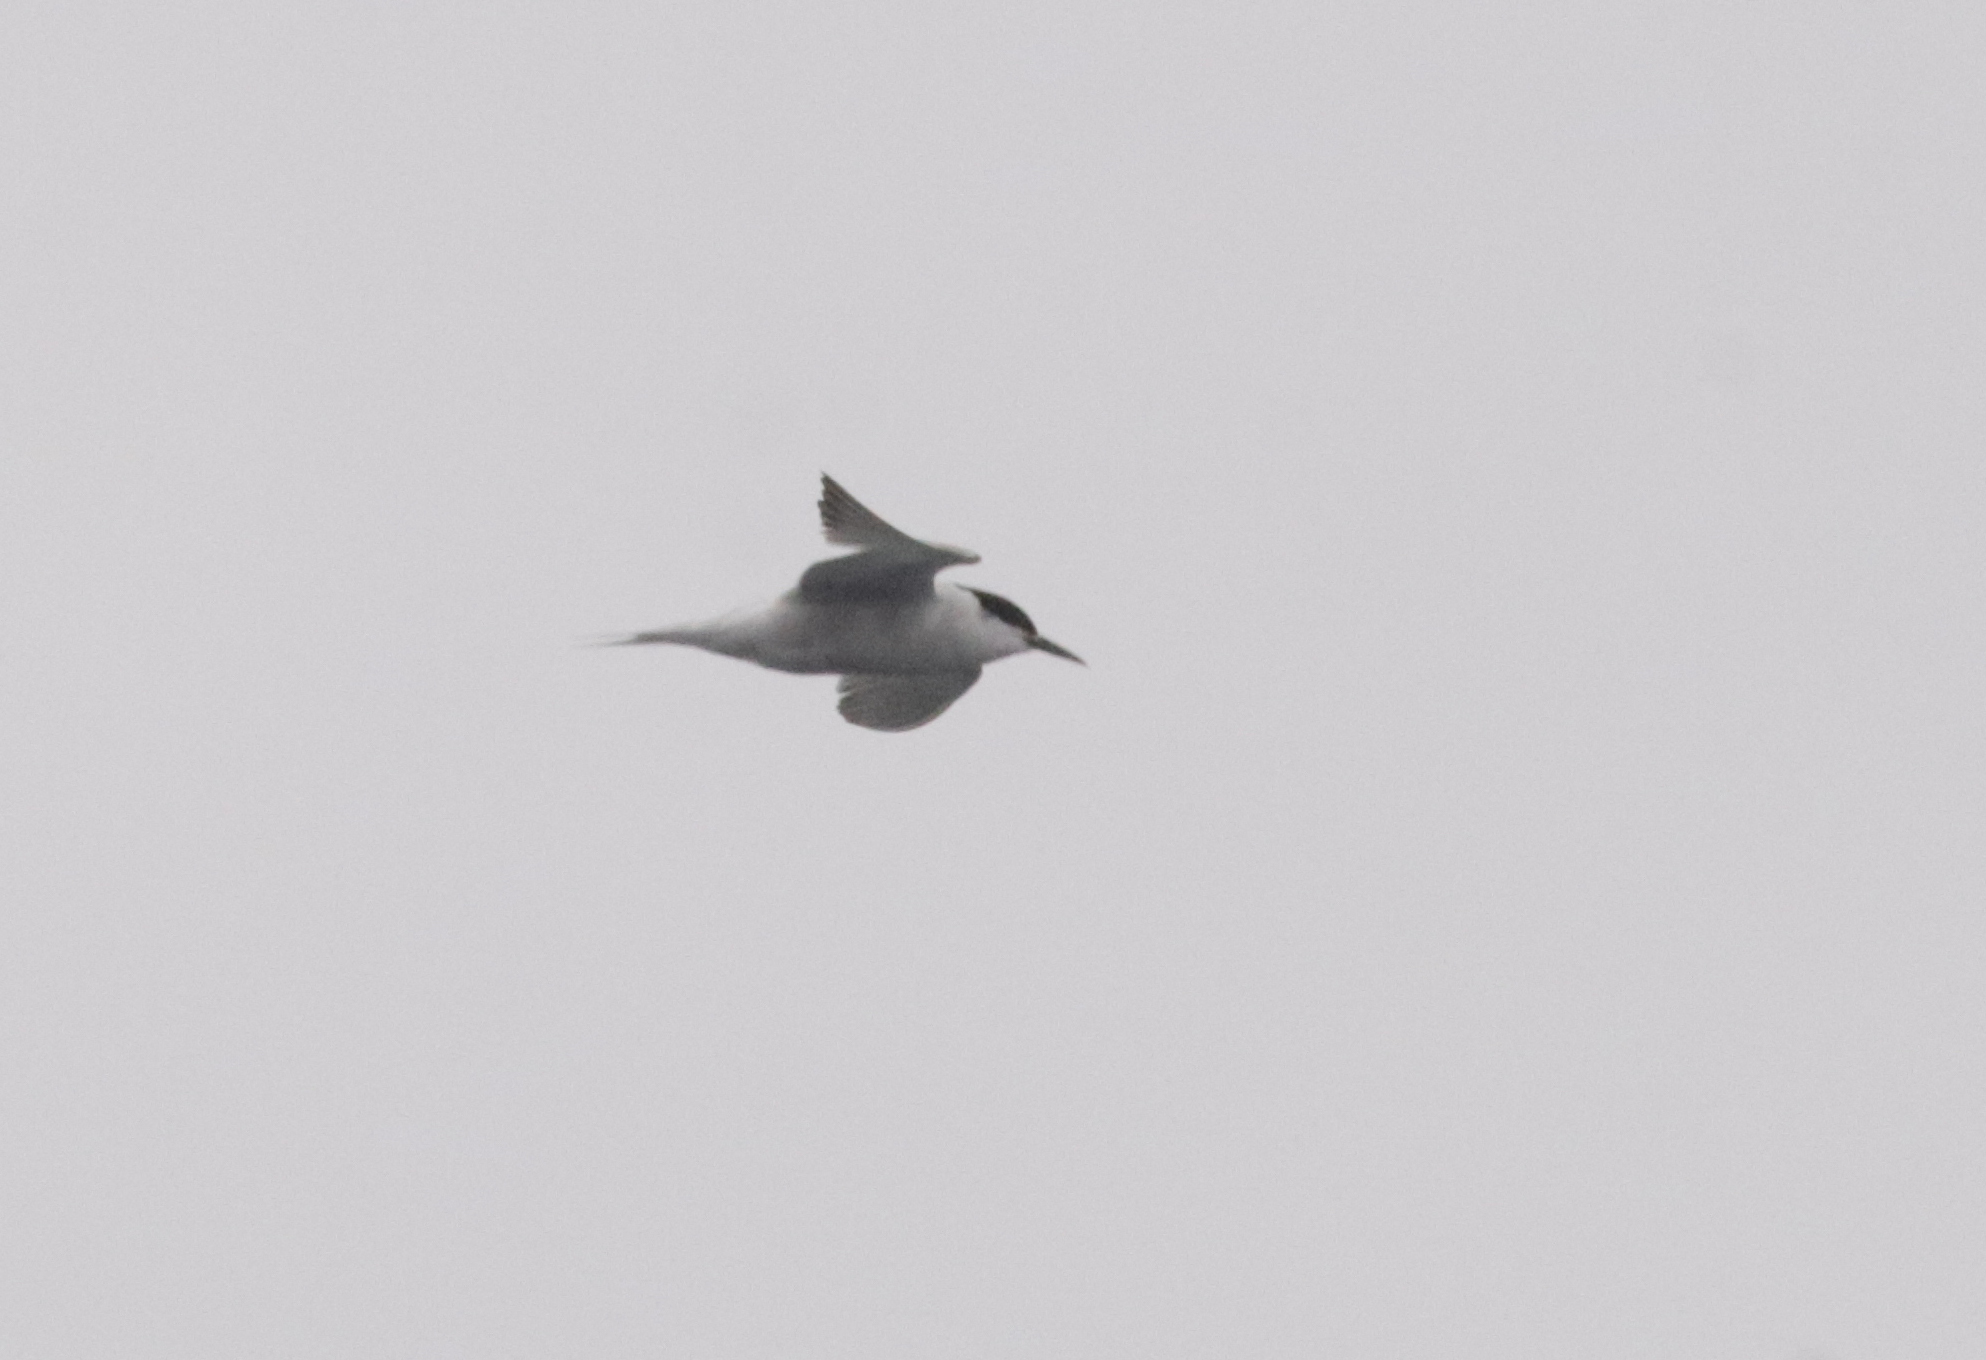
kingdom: Animalia
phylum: Chordata
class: Aves
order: Charadriiformes
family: Laridae
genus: Sterna
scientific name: Sterna hirundo
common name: Common tern
